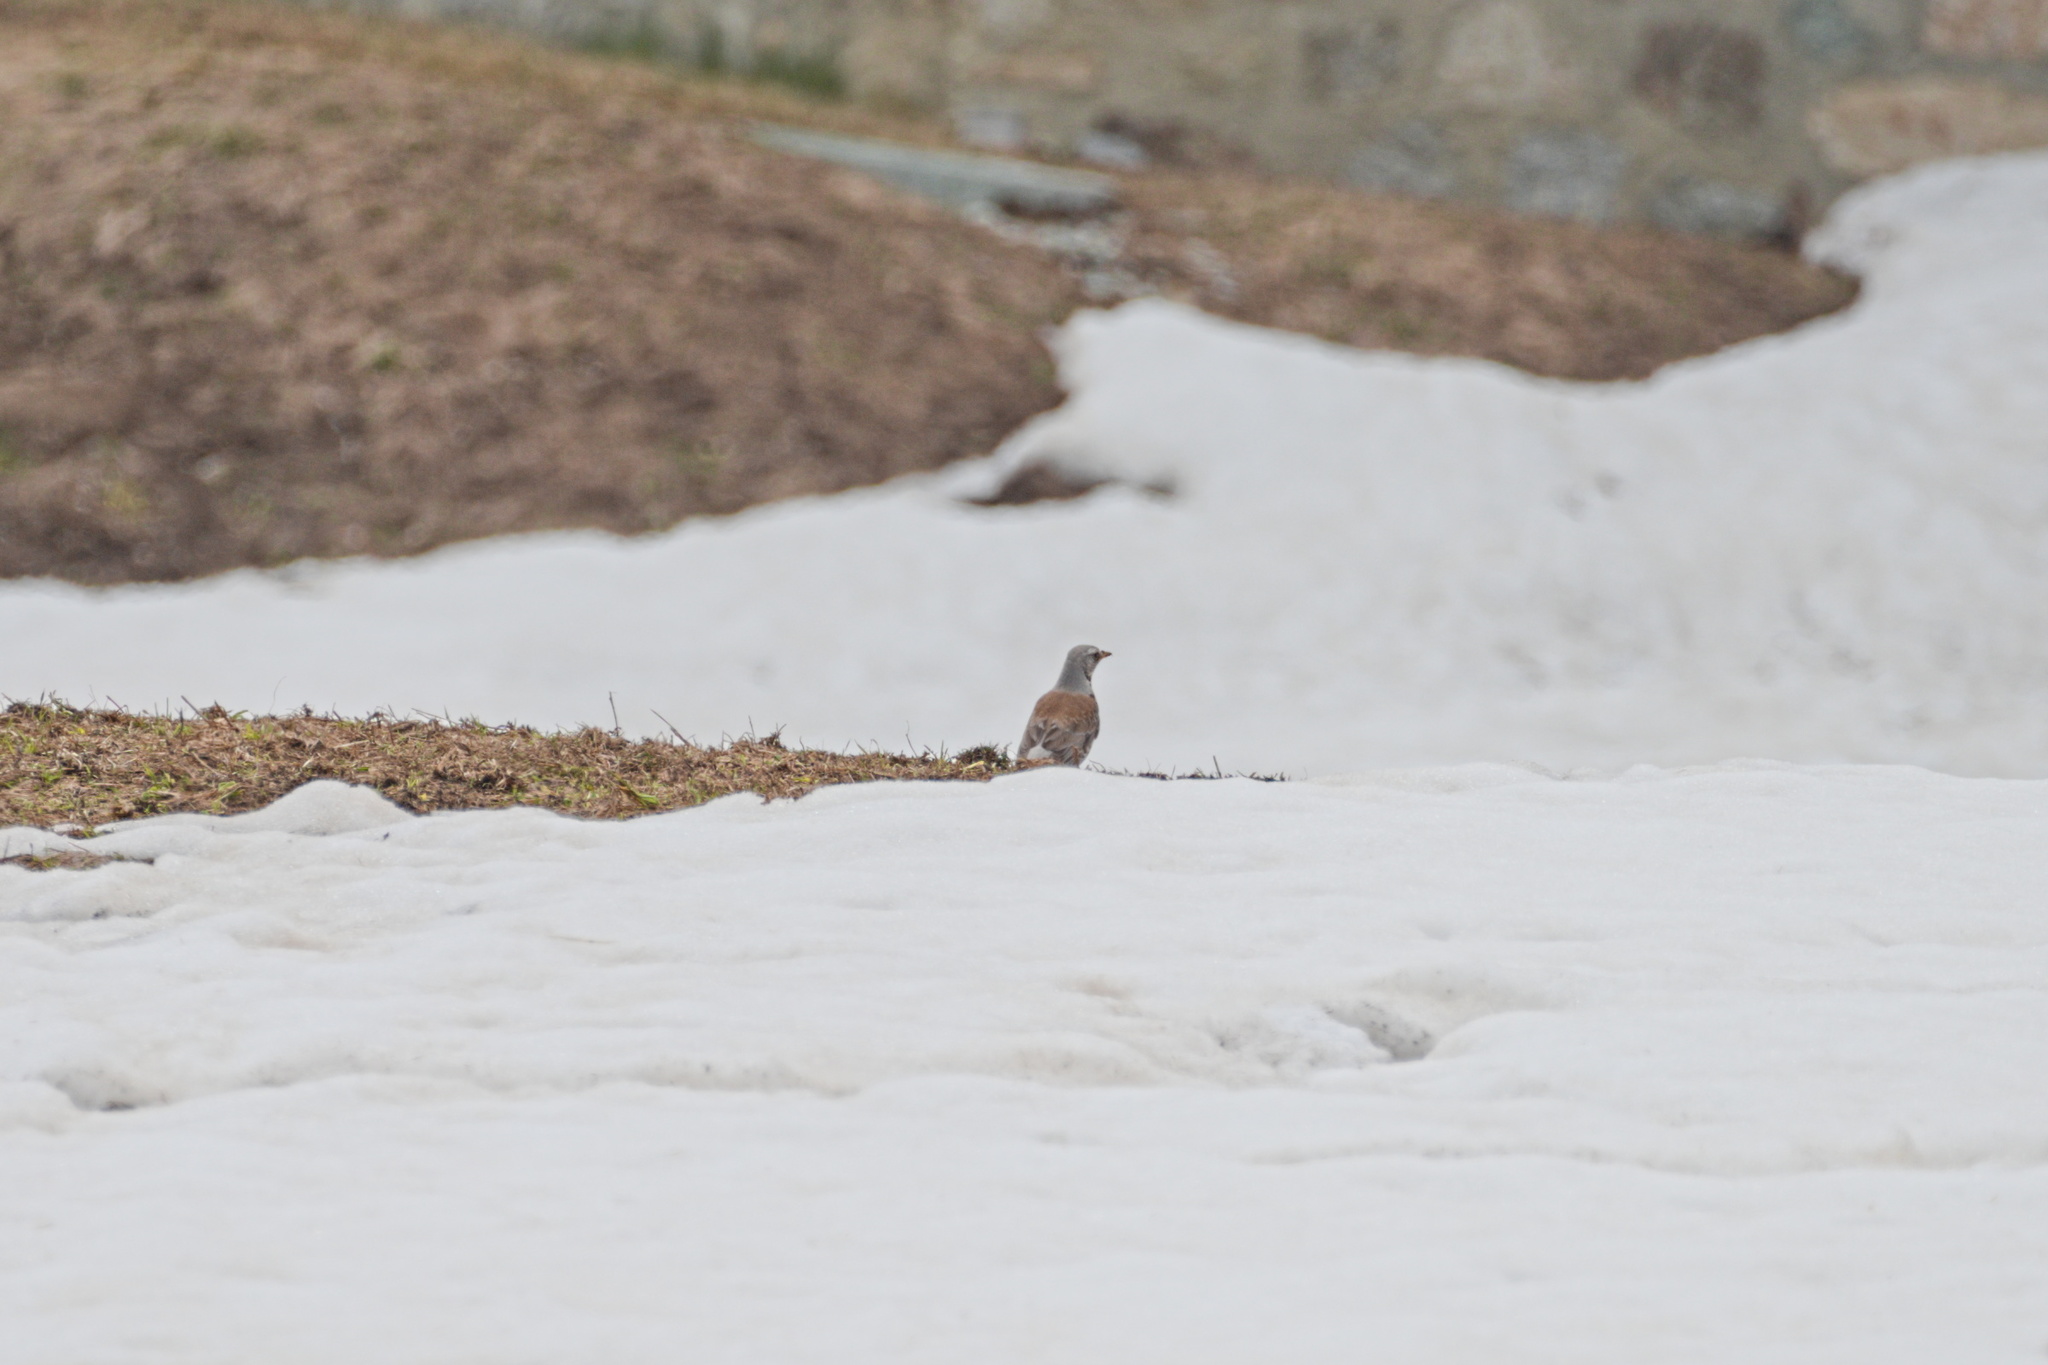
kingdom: Animalia
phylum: Chordata
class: Aves
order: Passeriformes
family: Turdidae
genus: Turdus
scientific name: Turdus pilaris
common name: Fieldfare
